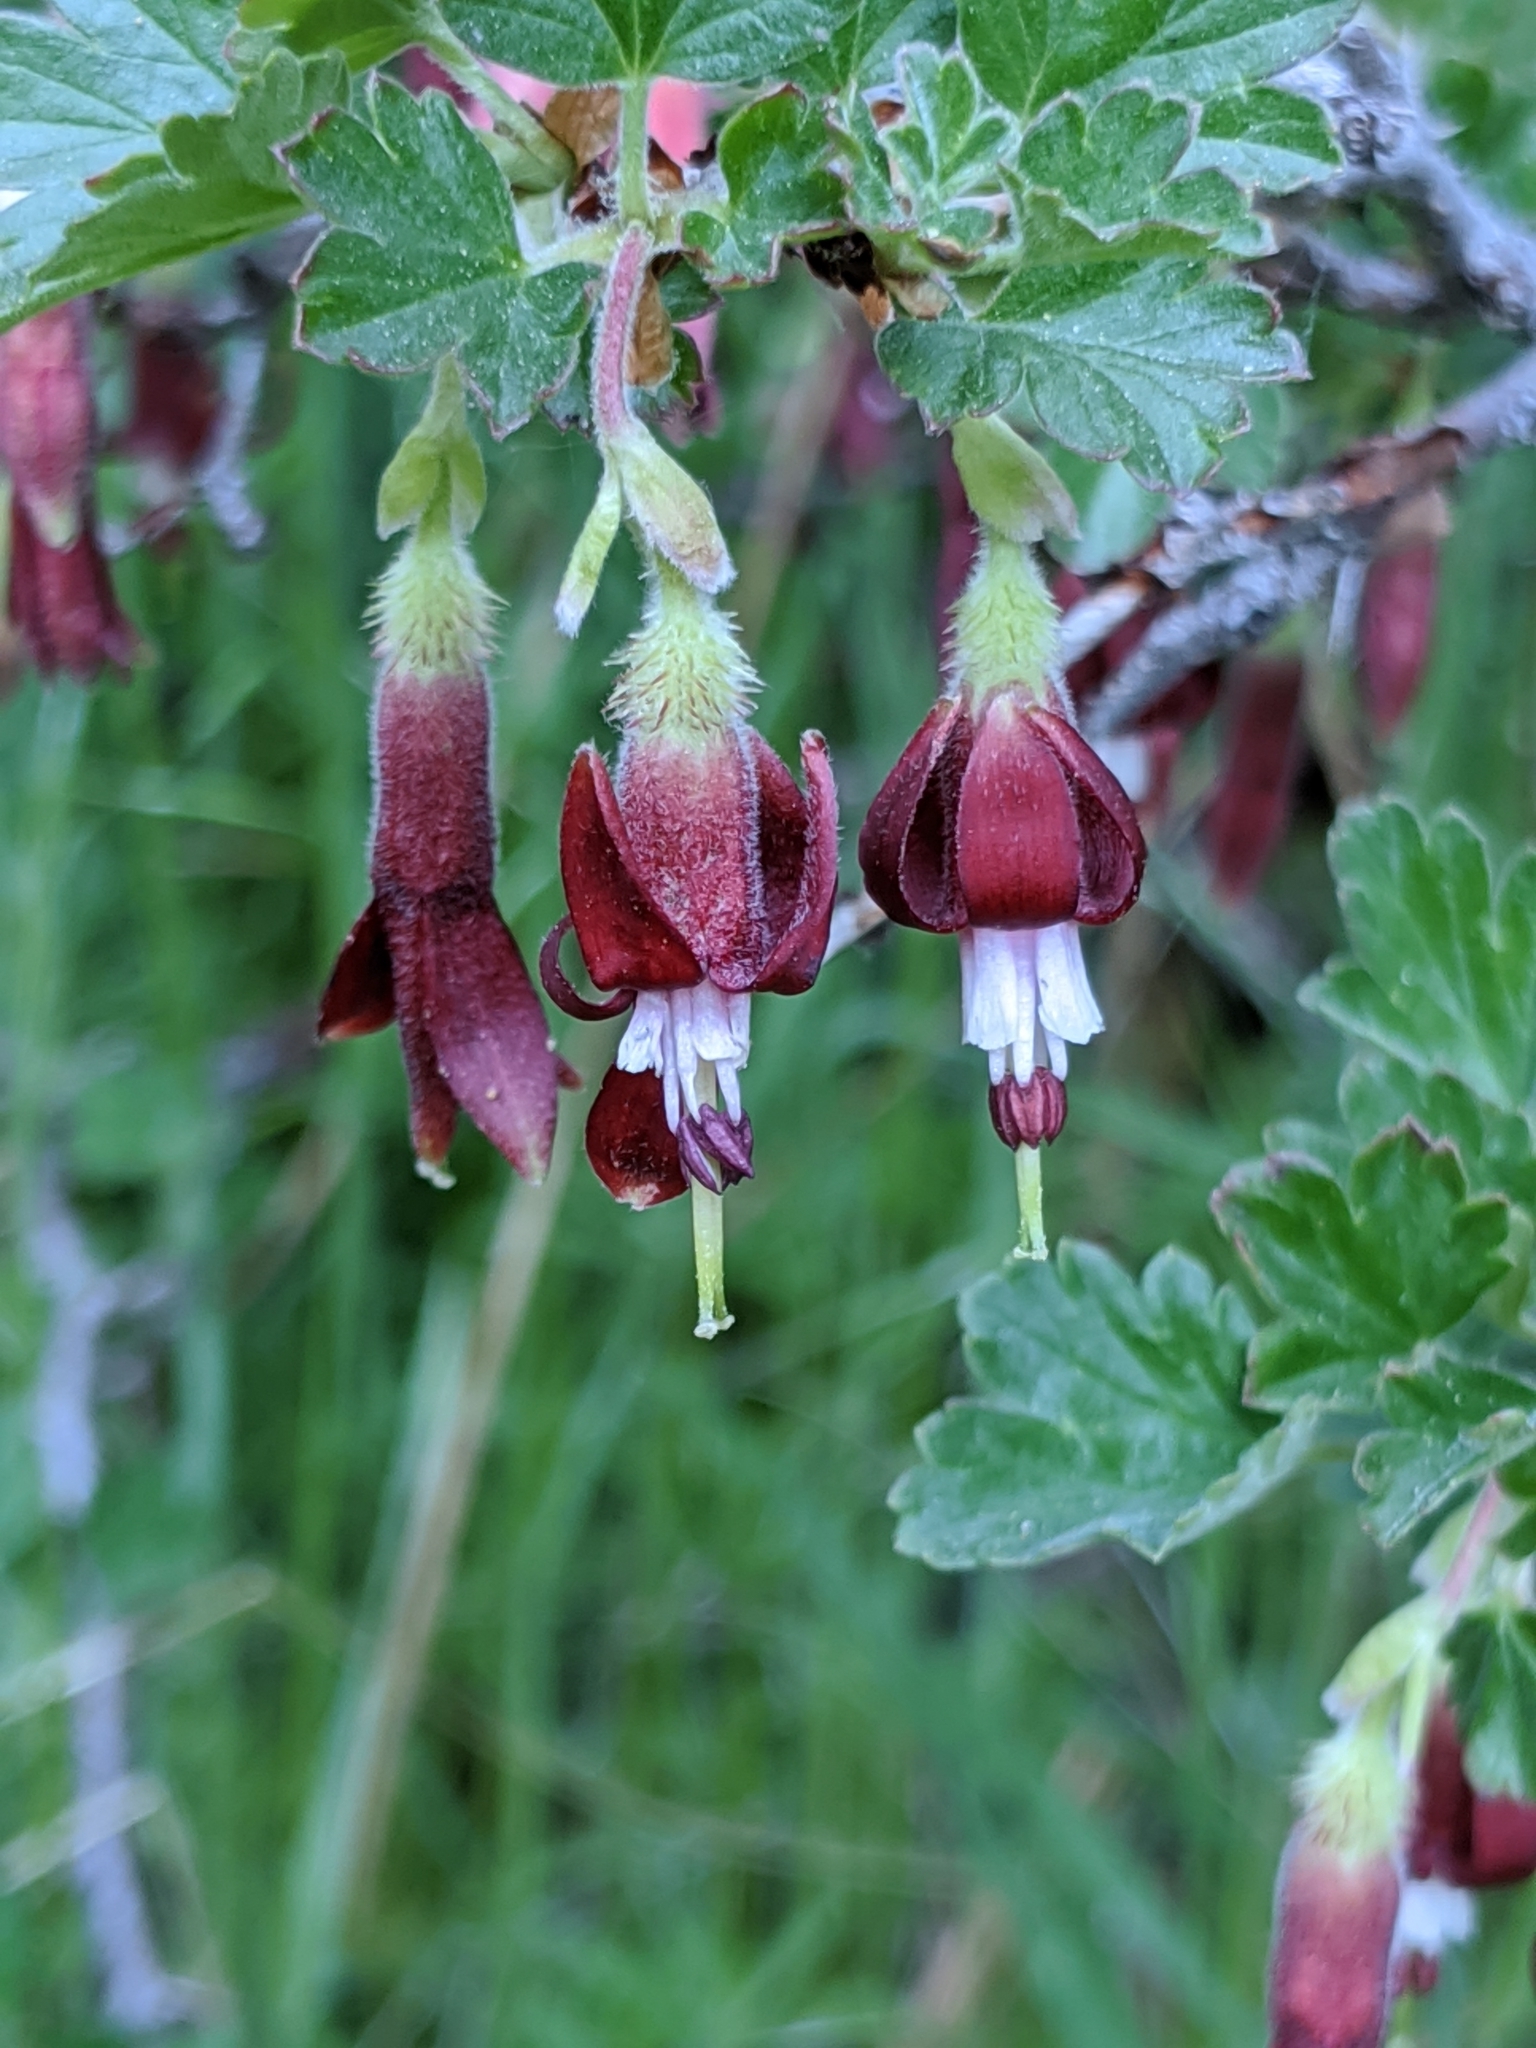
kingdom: Plantae
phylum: Tracheophyta
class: Magnoliopsida
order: Saxifragales
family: Grossulariaceae
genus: Ribes
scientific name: Ribes roezlii
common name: Sierra gooseberry
